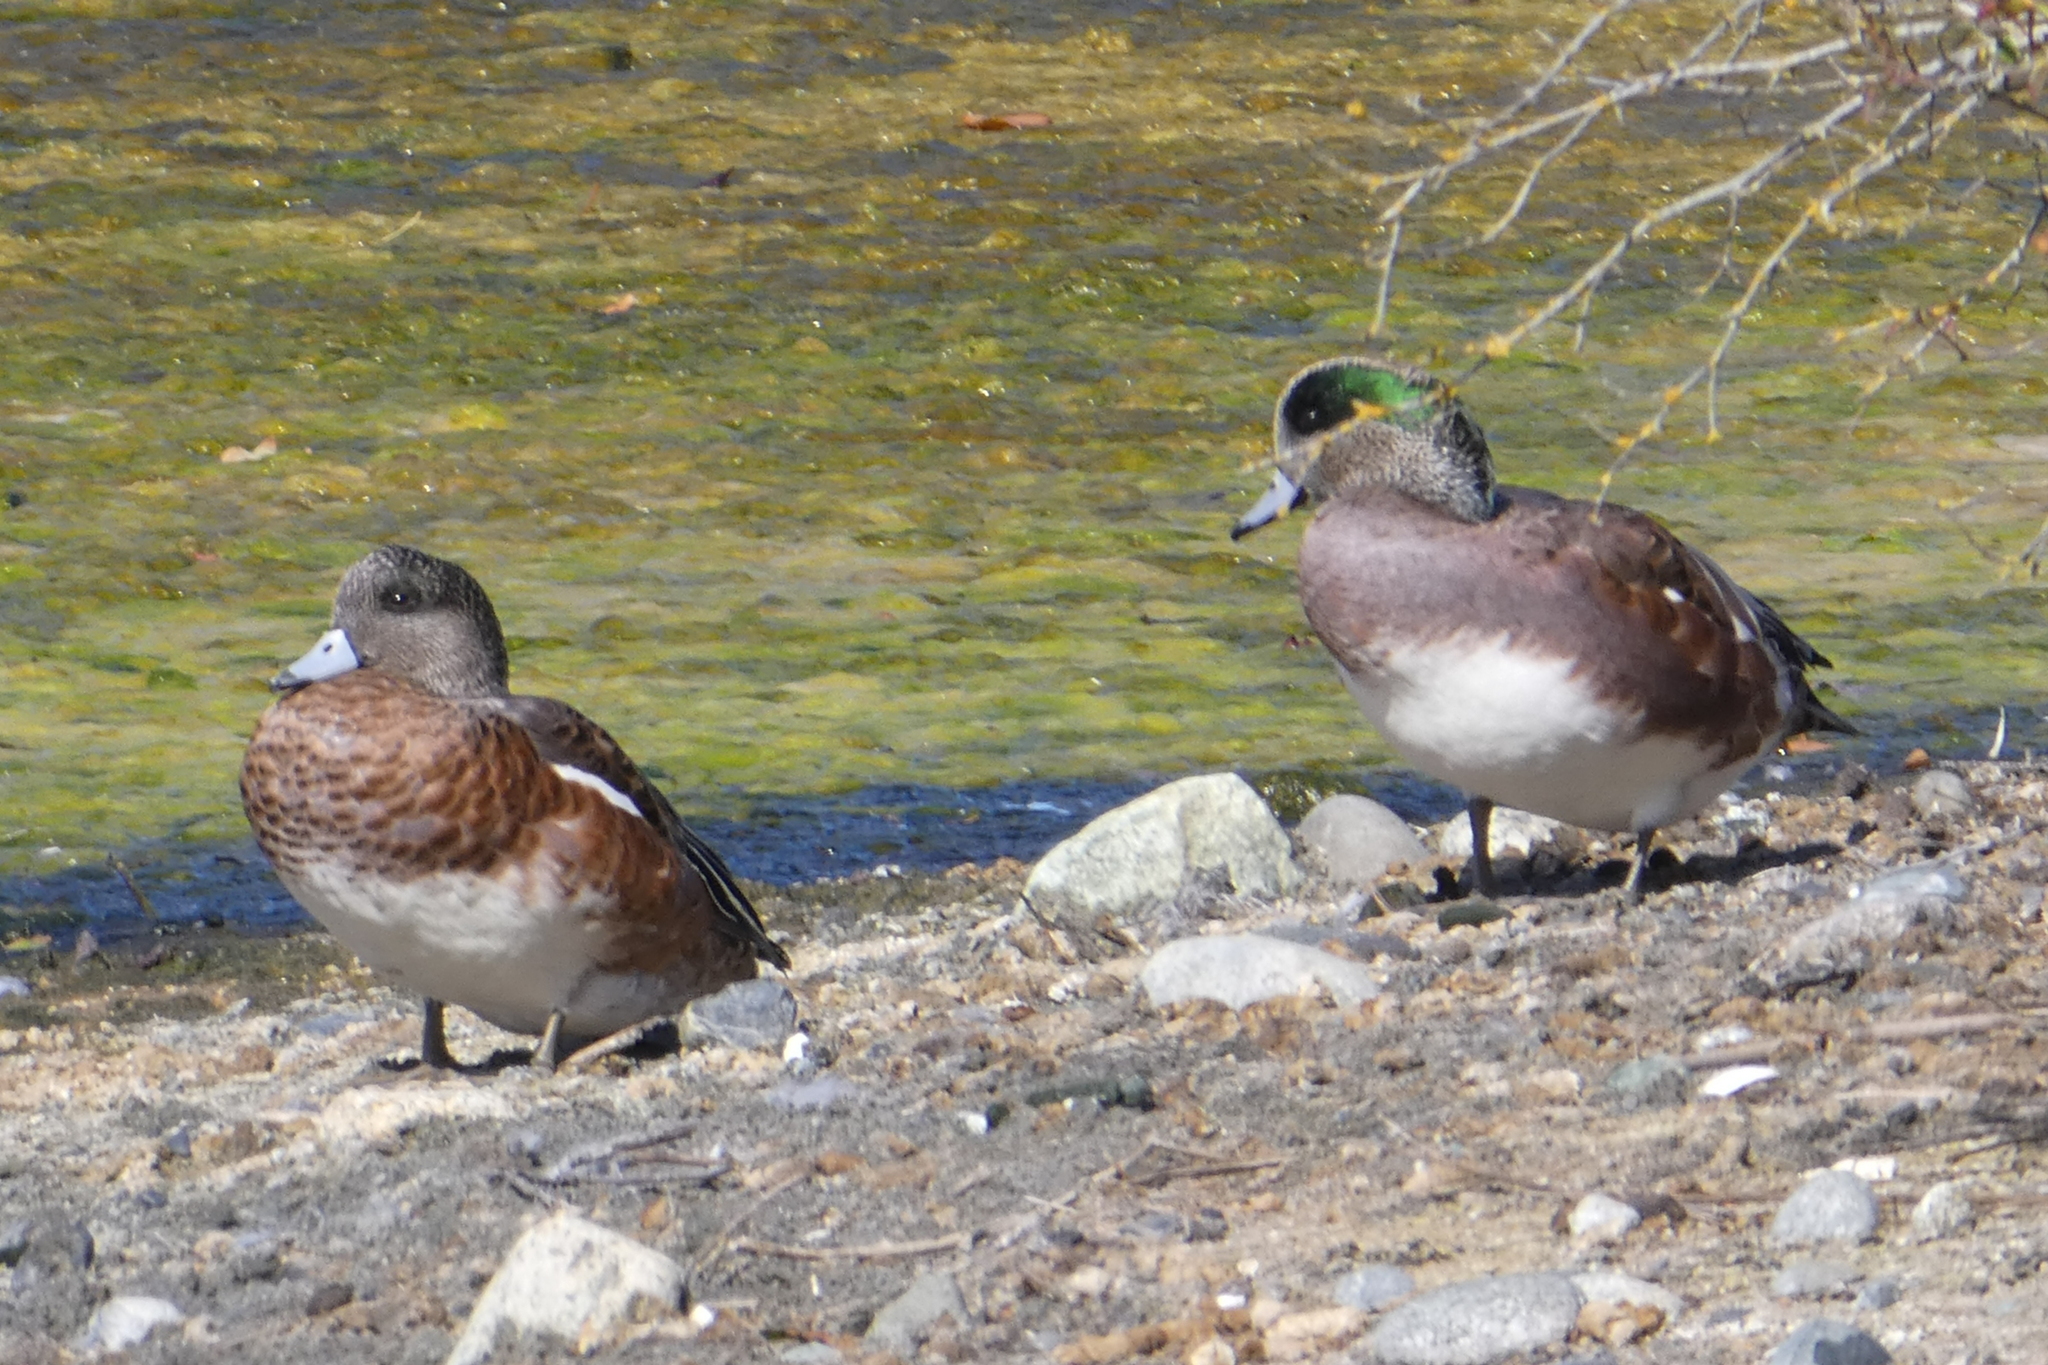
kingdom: Animalia
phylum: Chordata
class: Aves
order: Anseriformes
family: Anatidae
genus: Mareca
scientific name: Mareca americana
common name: American wigeon
